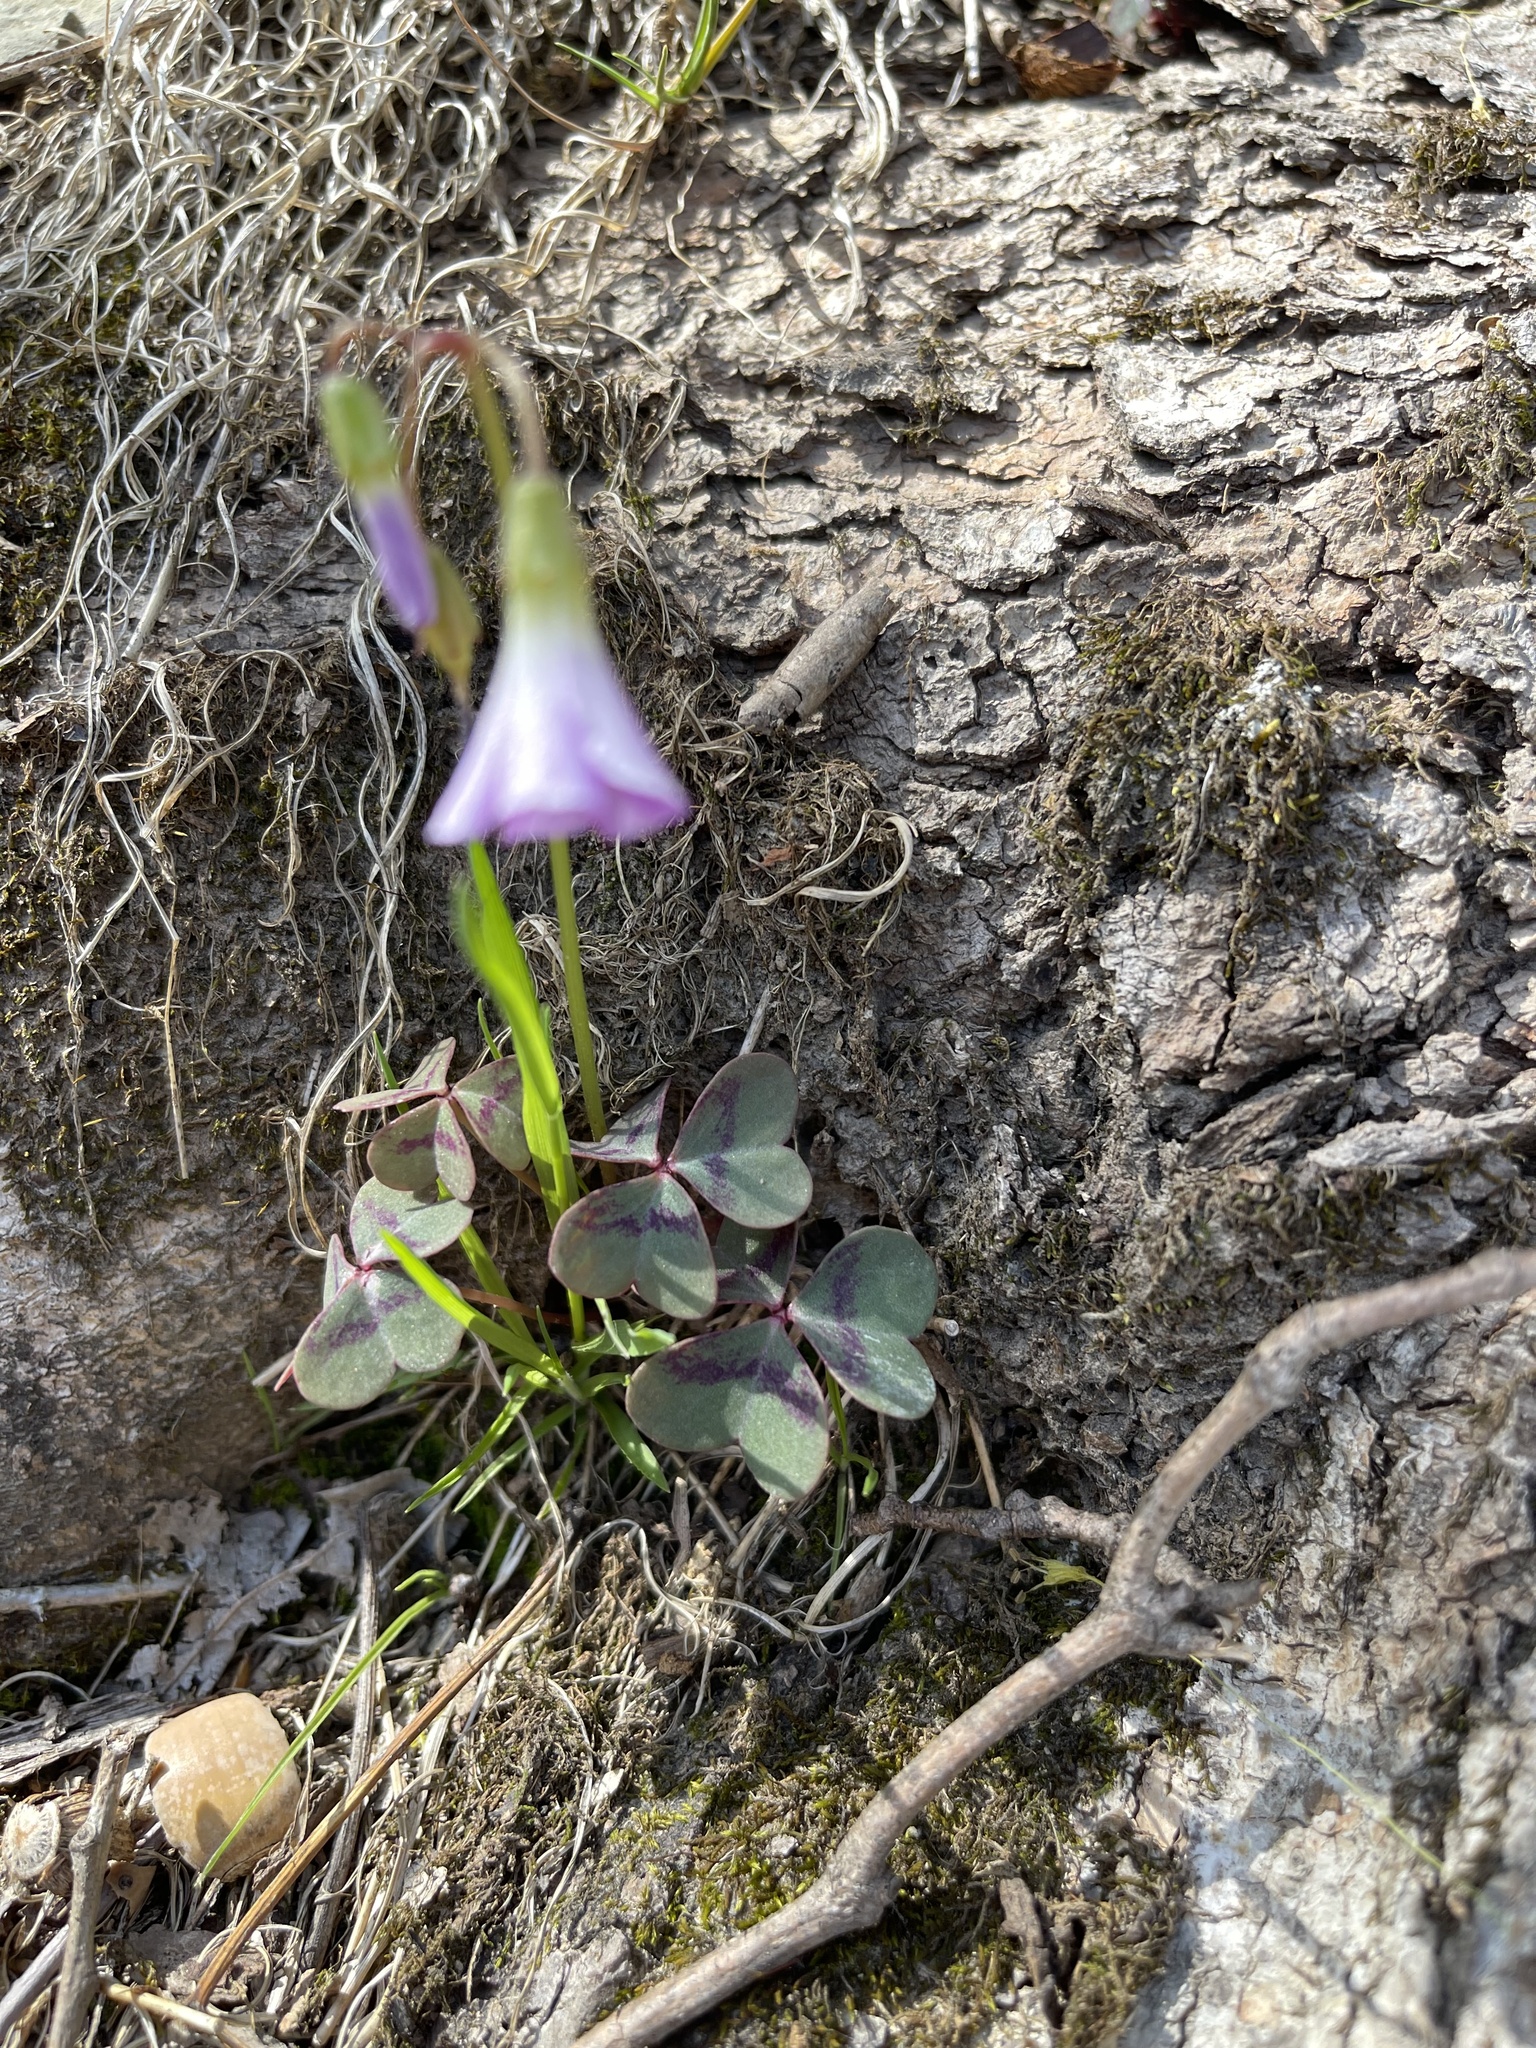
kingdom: Plantae
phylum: Tracheophyta
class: Magnoliopsida
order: Oxalidales
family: Oxalidaceae
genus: Oxalis
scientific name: Oxalis violacea
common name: Violet wood-sorrel
